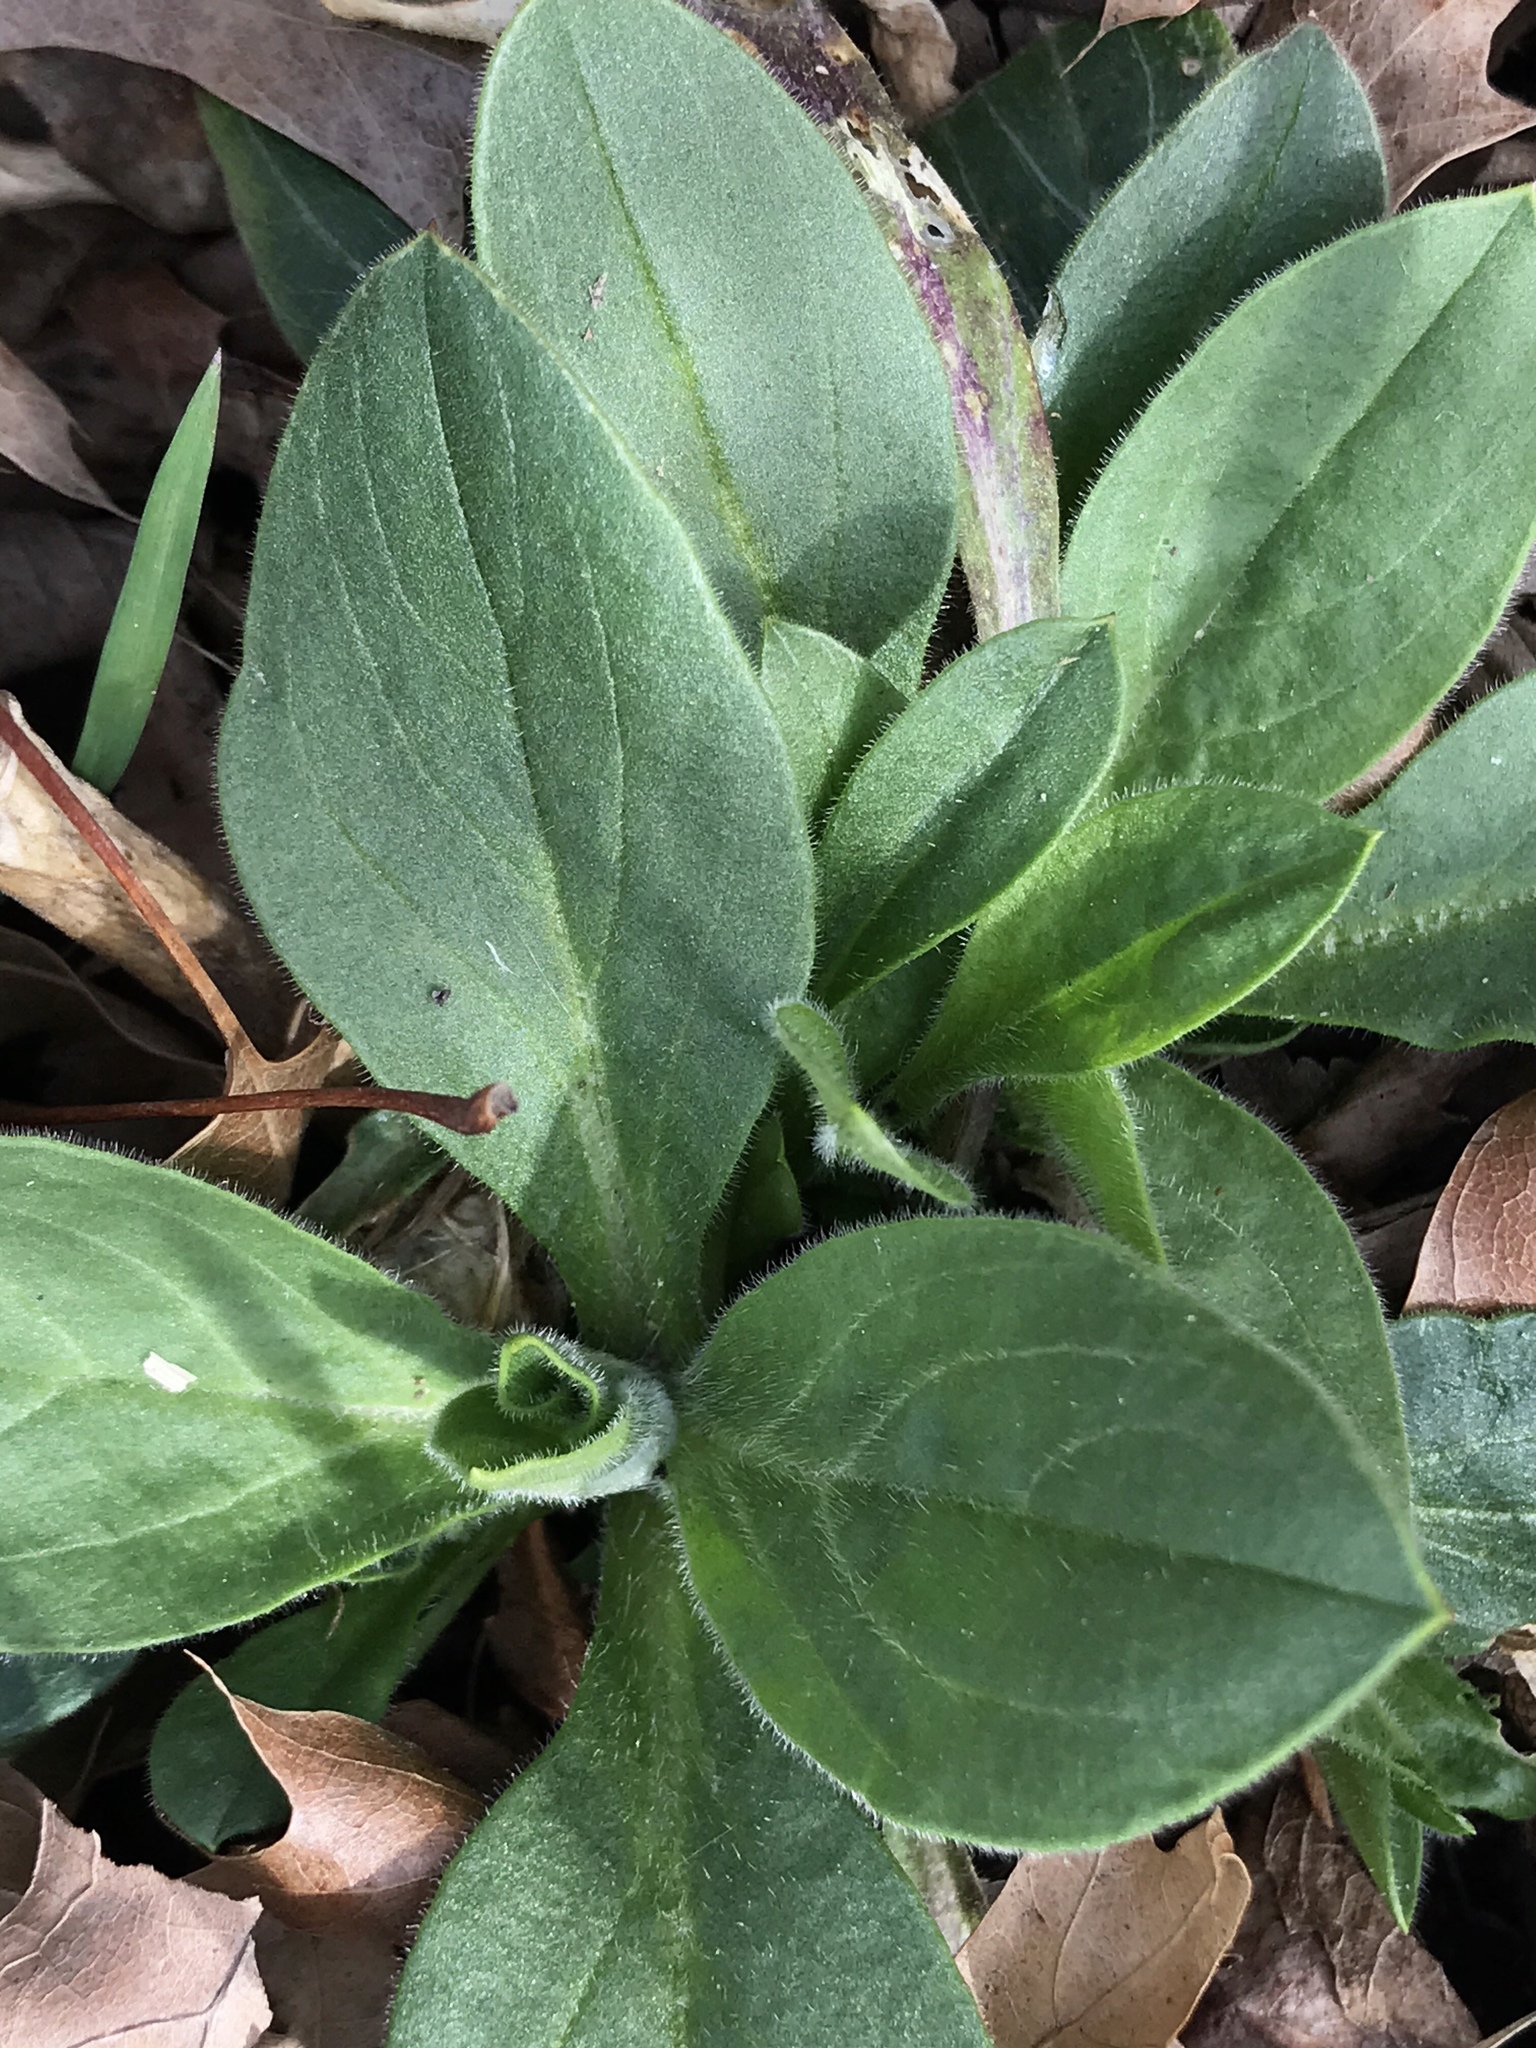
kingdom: Plantae
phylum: Tracheophyta
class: Magnoliopsida
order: Caryophyllales
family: Caryophyllaceae
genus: Silene
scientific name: Silene latifolia
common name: White campion
